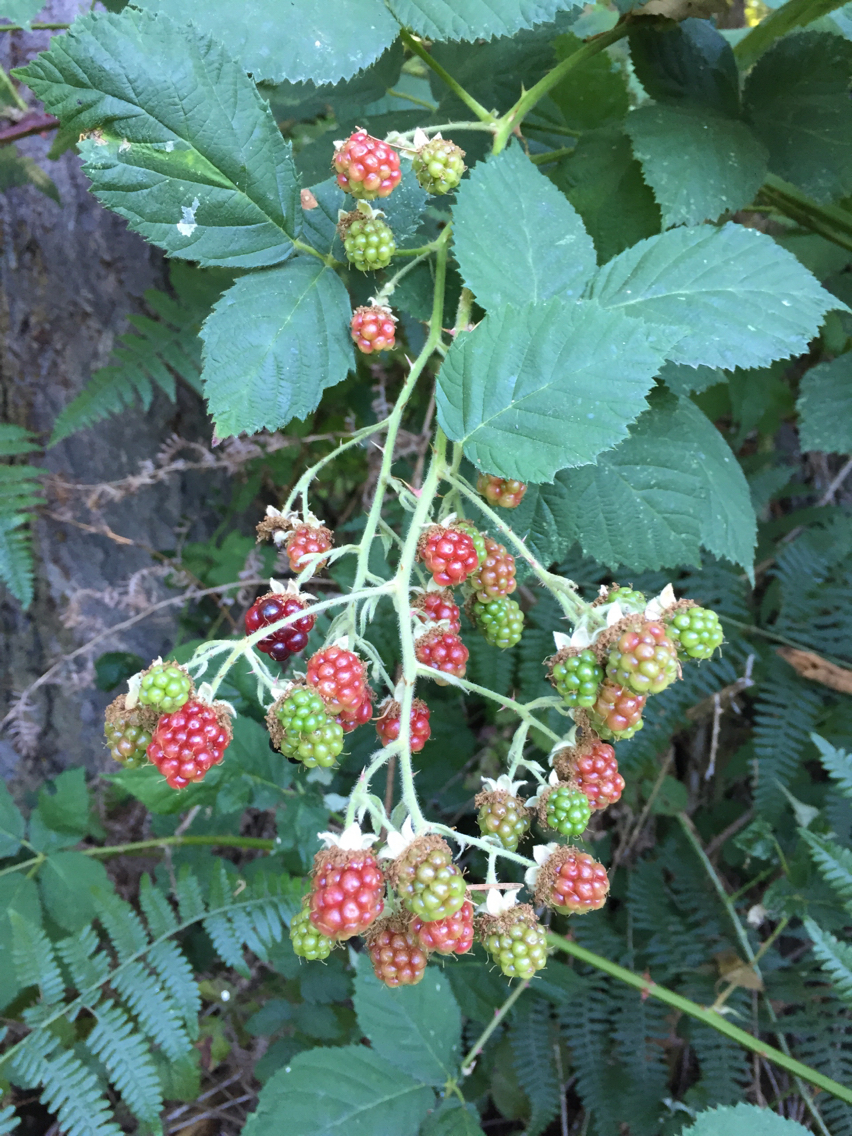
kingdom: Plantae
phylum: Tracheophyta
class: Magnoliopsida
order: Rosales
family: Rosaceae
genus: Rubus
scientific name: Rubus armeniacus
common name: Himalayan blackberry
